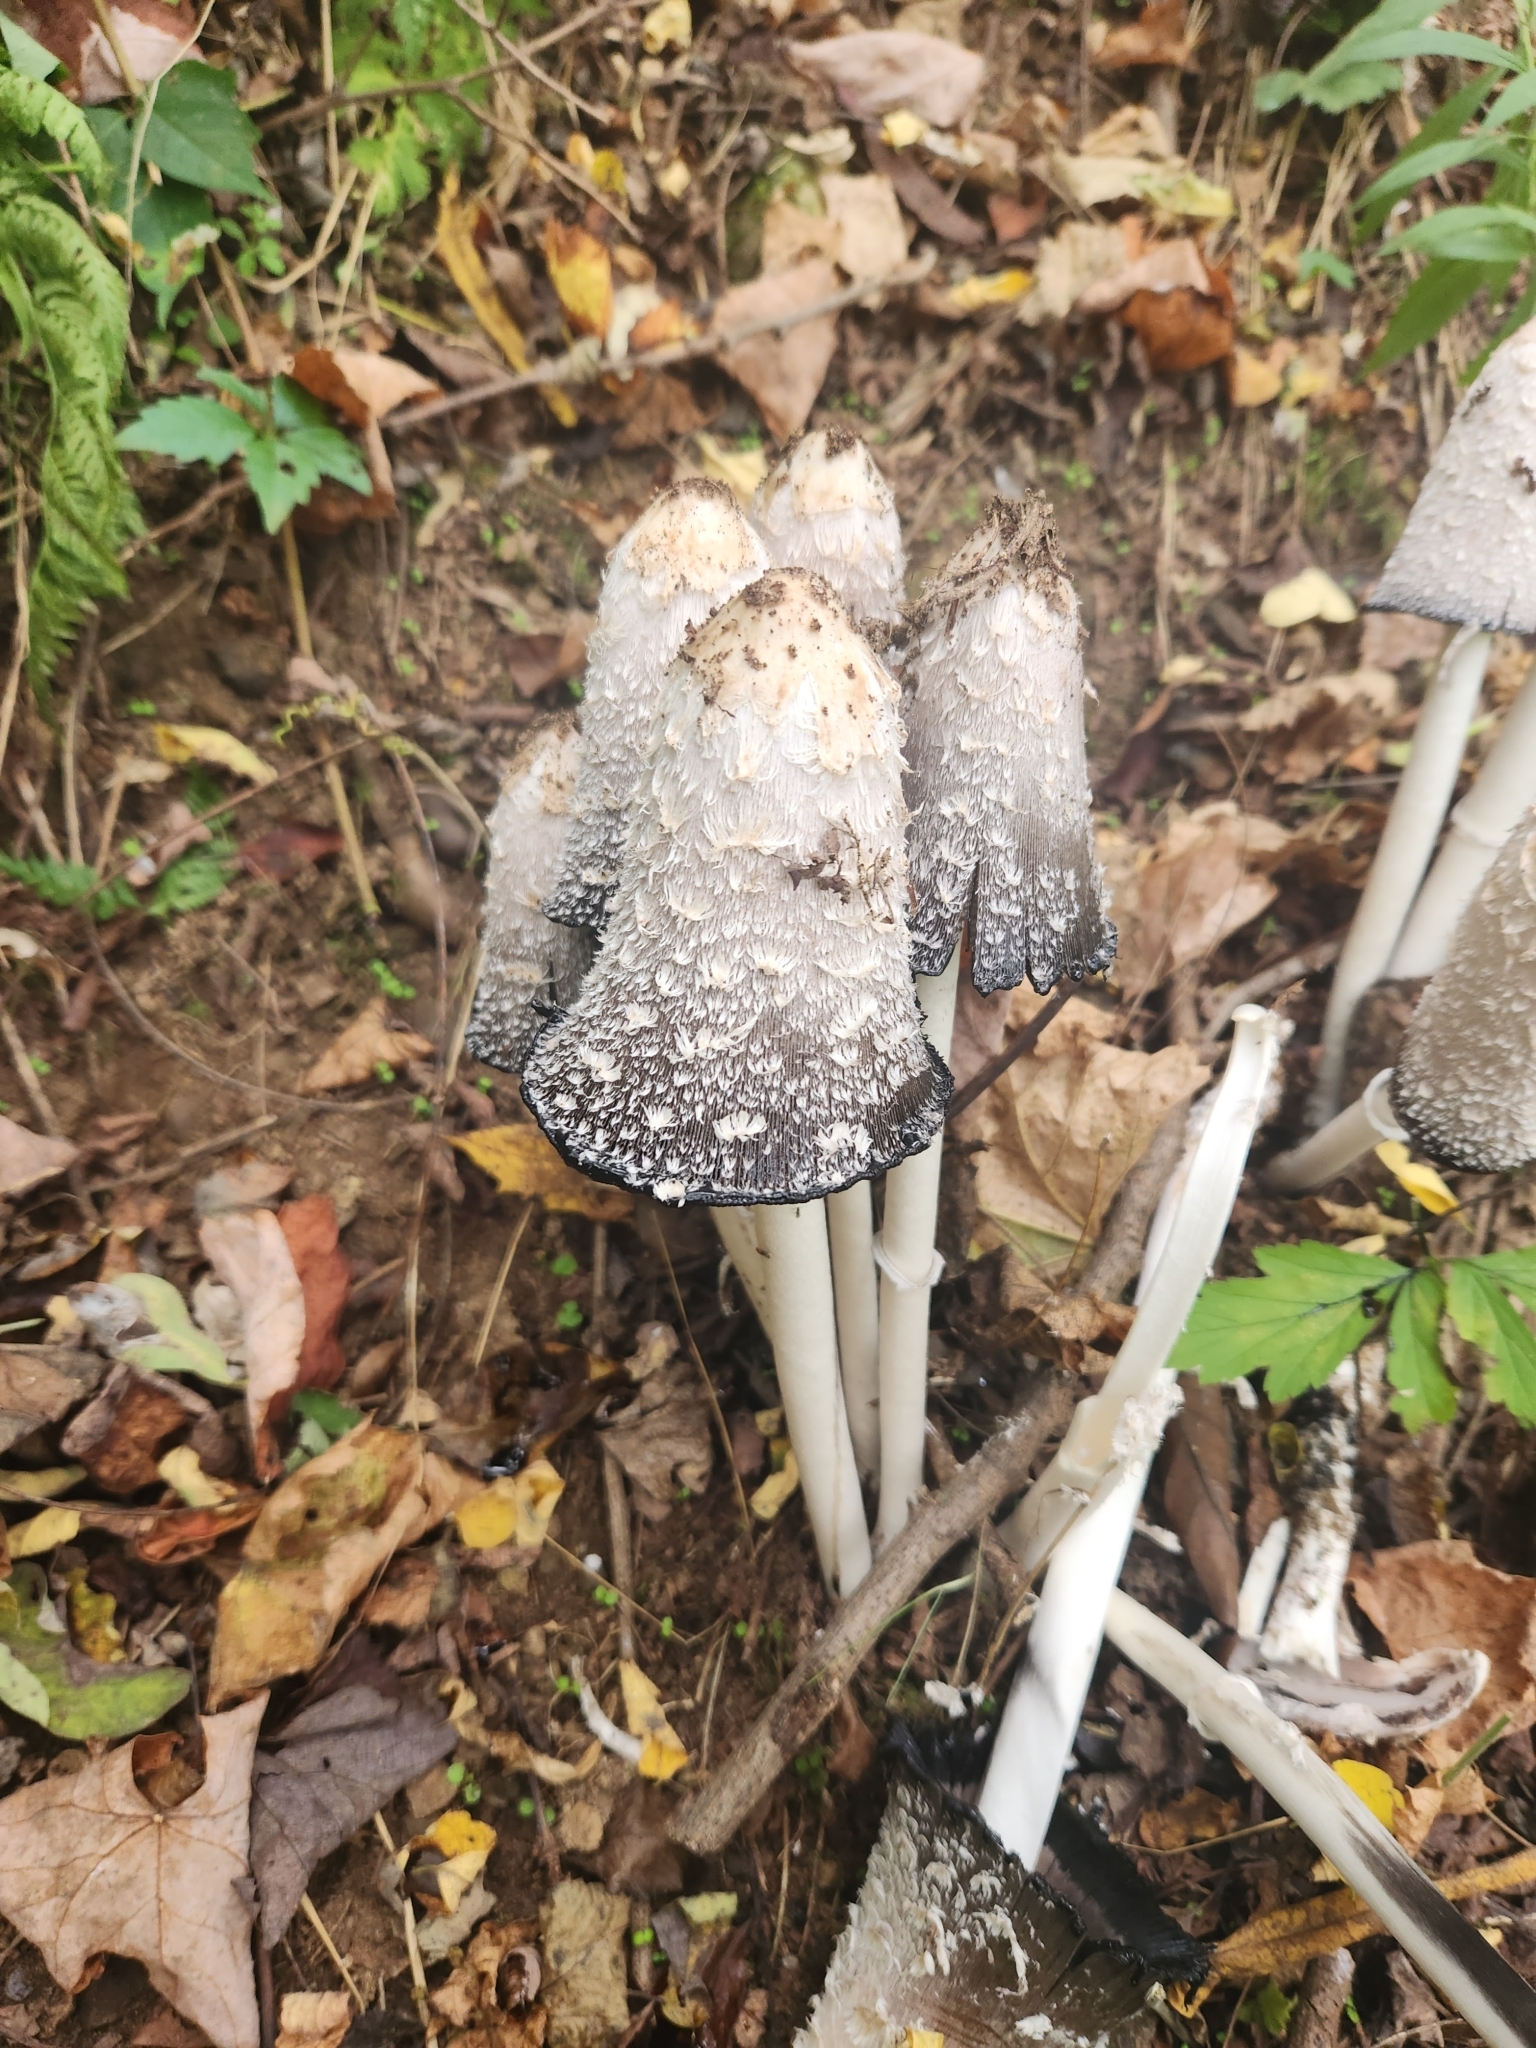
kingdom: Fungi
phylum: Basidiomycota
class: Agaricomycetes
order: Agaricales
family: Agaricaceae
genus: Coprinus
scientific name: Coprinus comatus
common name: Lawyer's wig
